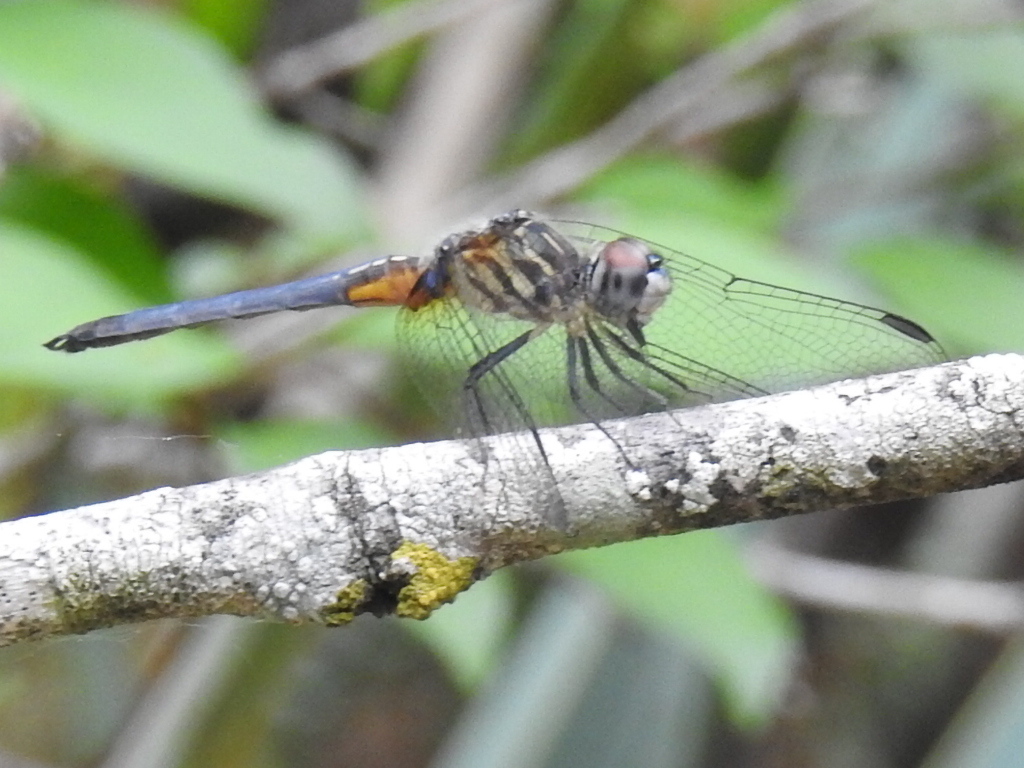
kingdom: Animalia
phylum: Arthropoda
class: Insecta
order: Odonata
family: Libellulidae
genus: Pachydiplax
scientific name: Pachydiplax longipennis
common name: Blue dasher
